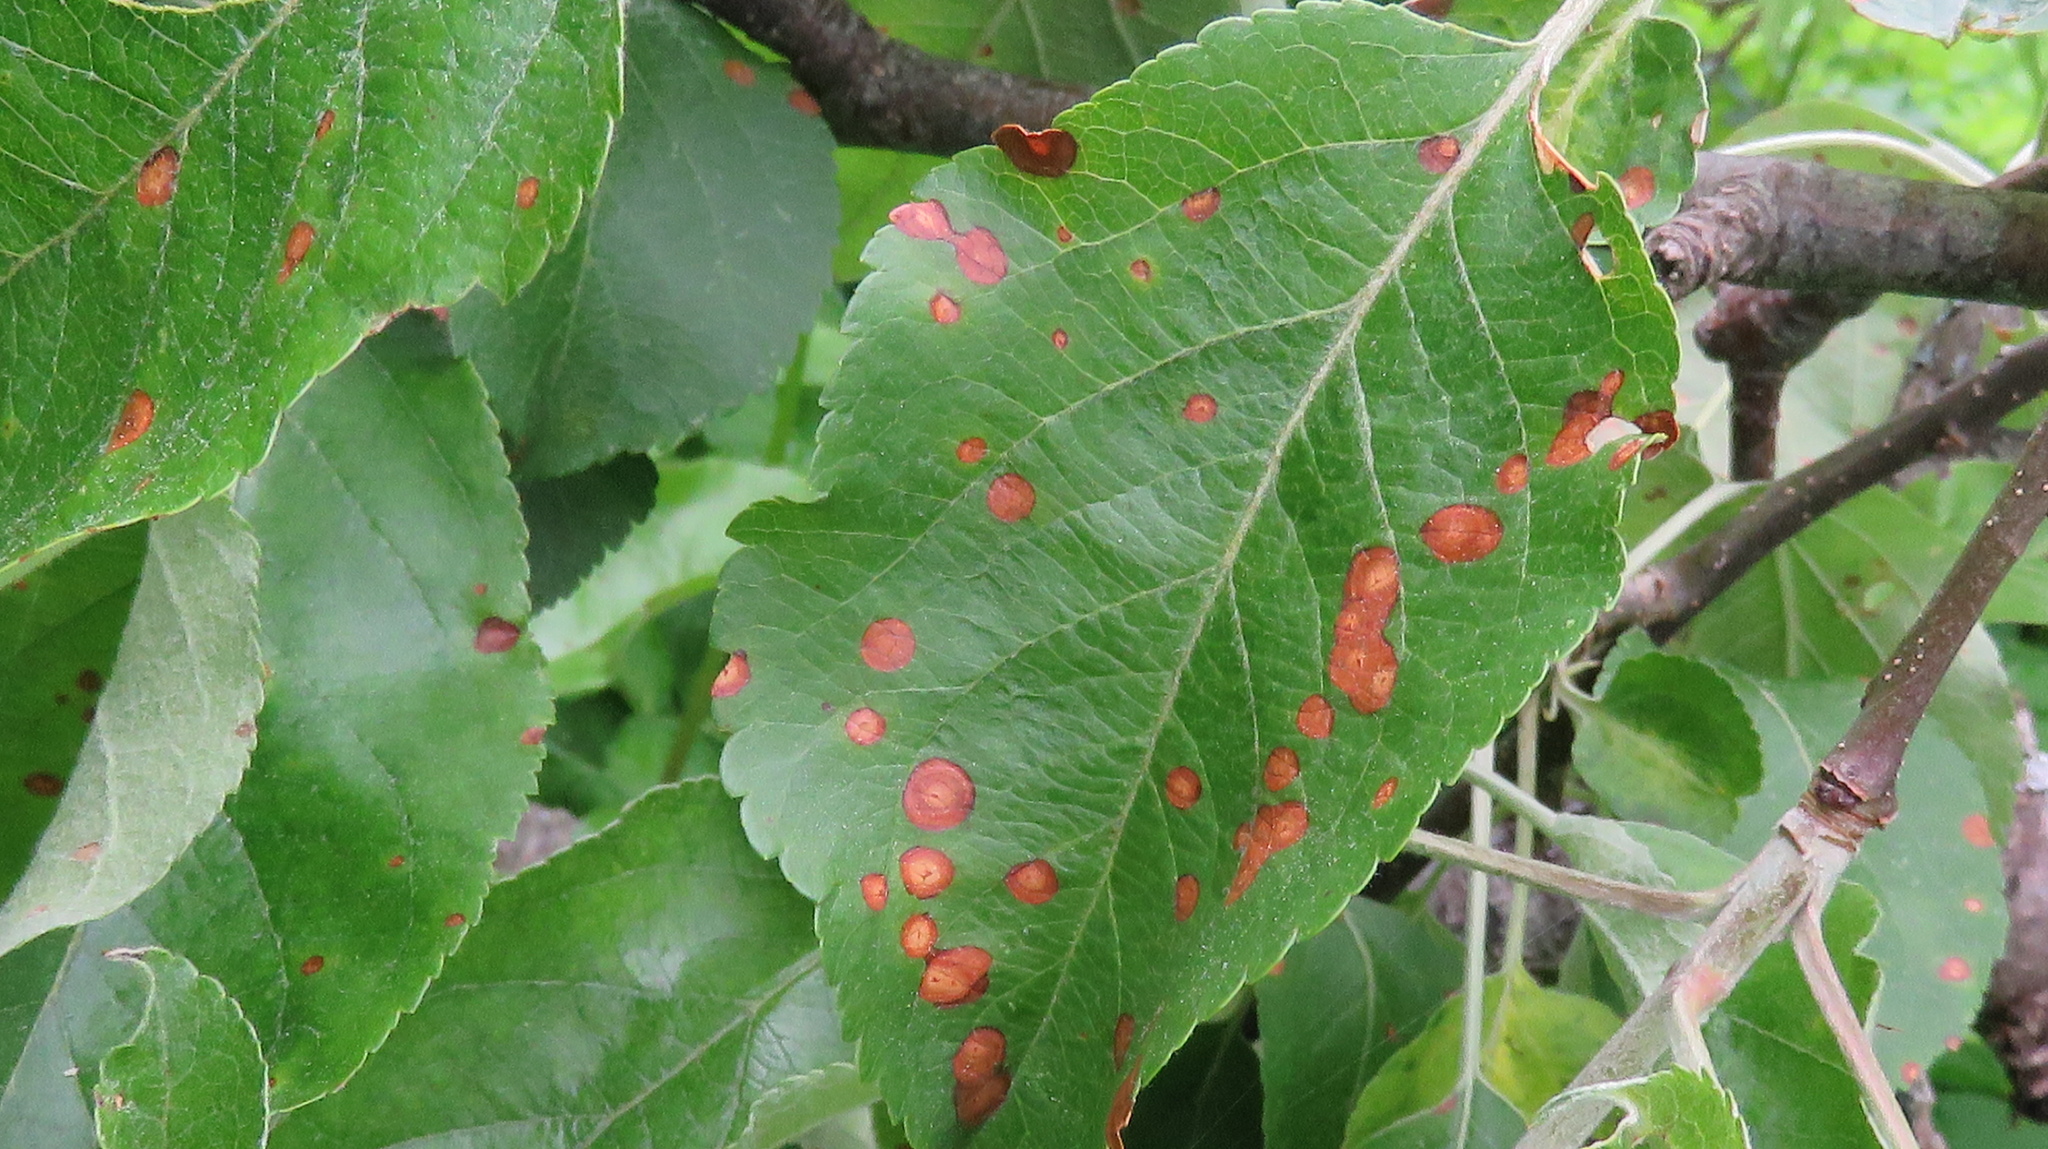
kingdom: Fungi
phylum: Ascomycota
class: Dothideomycetes
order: Pleosporales
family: Didymellaceae
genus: Peyronellaea
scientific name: Peyronellaea obtusa
